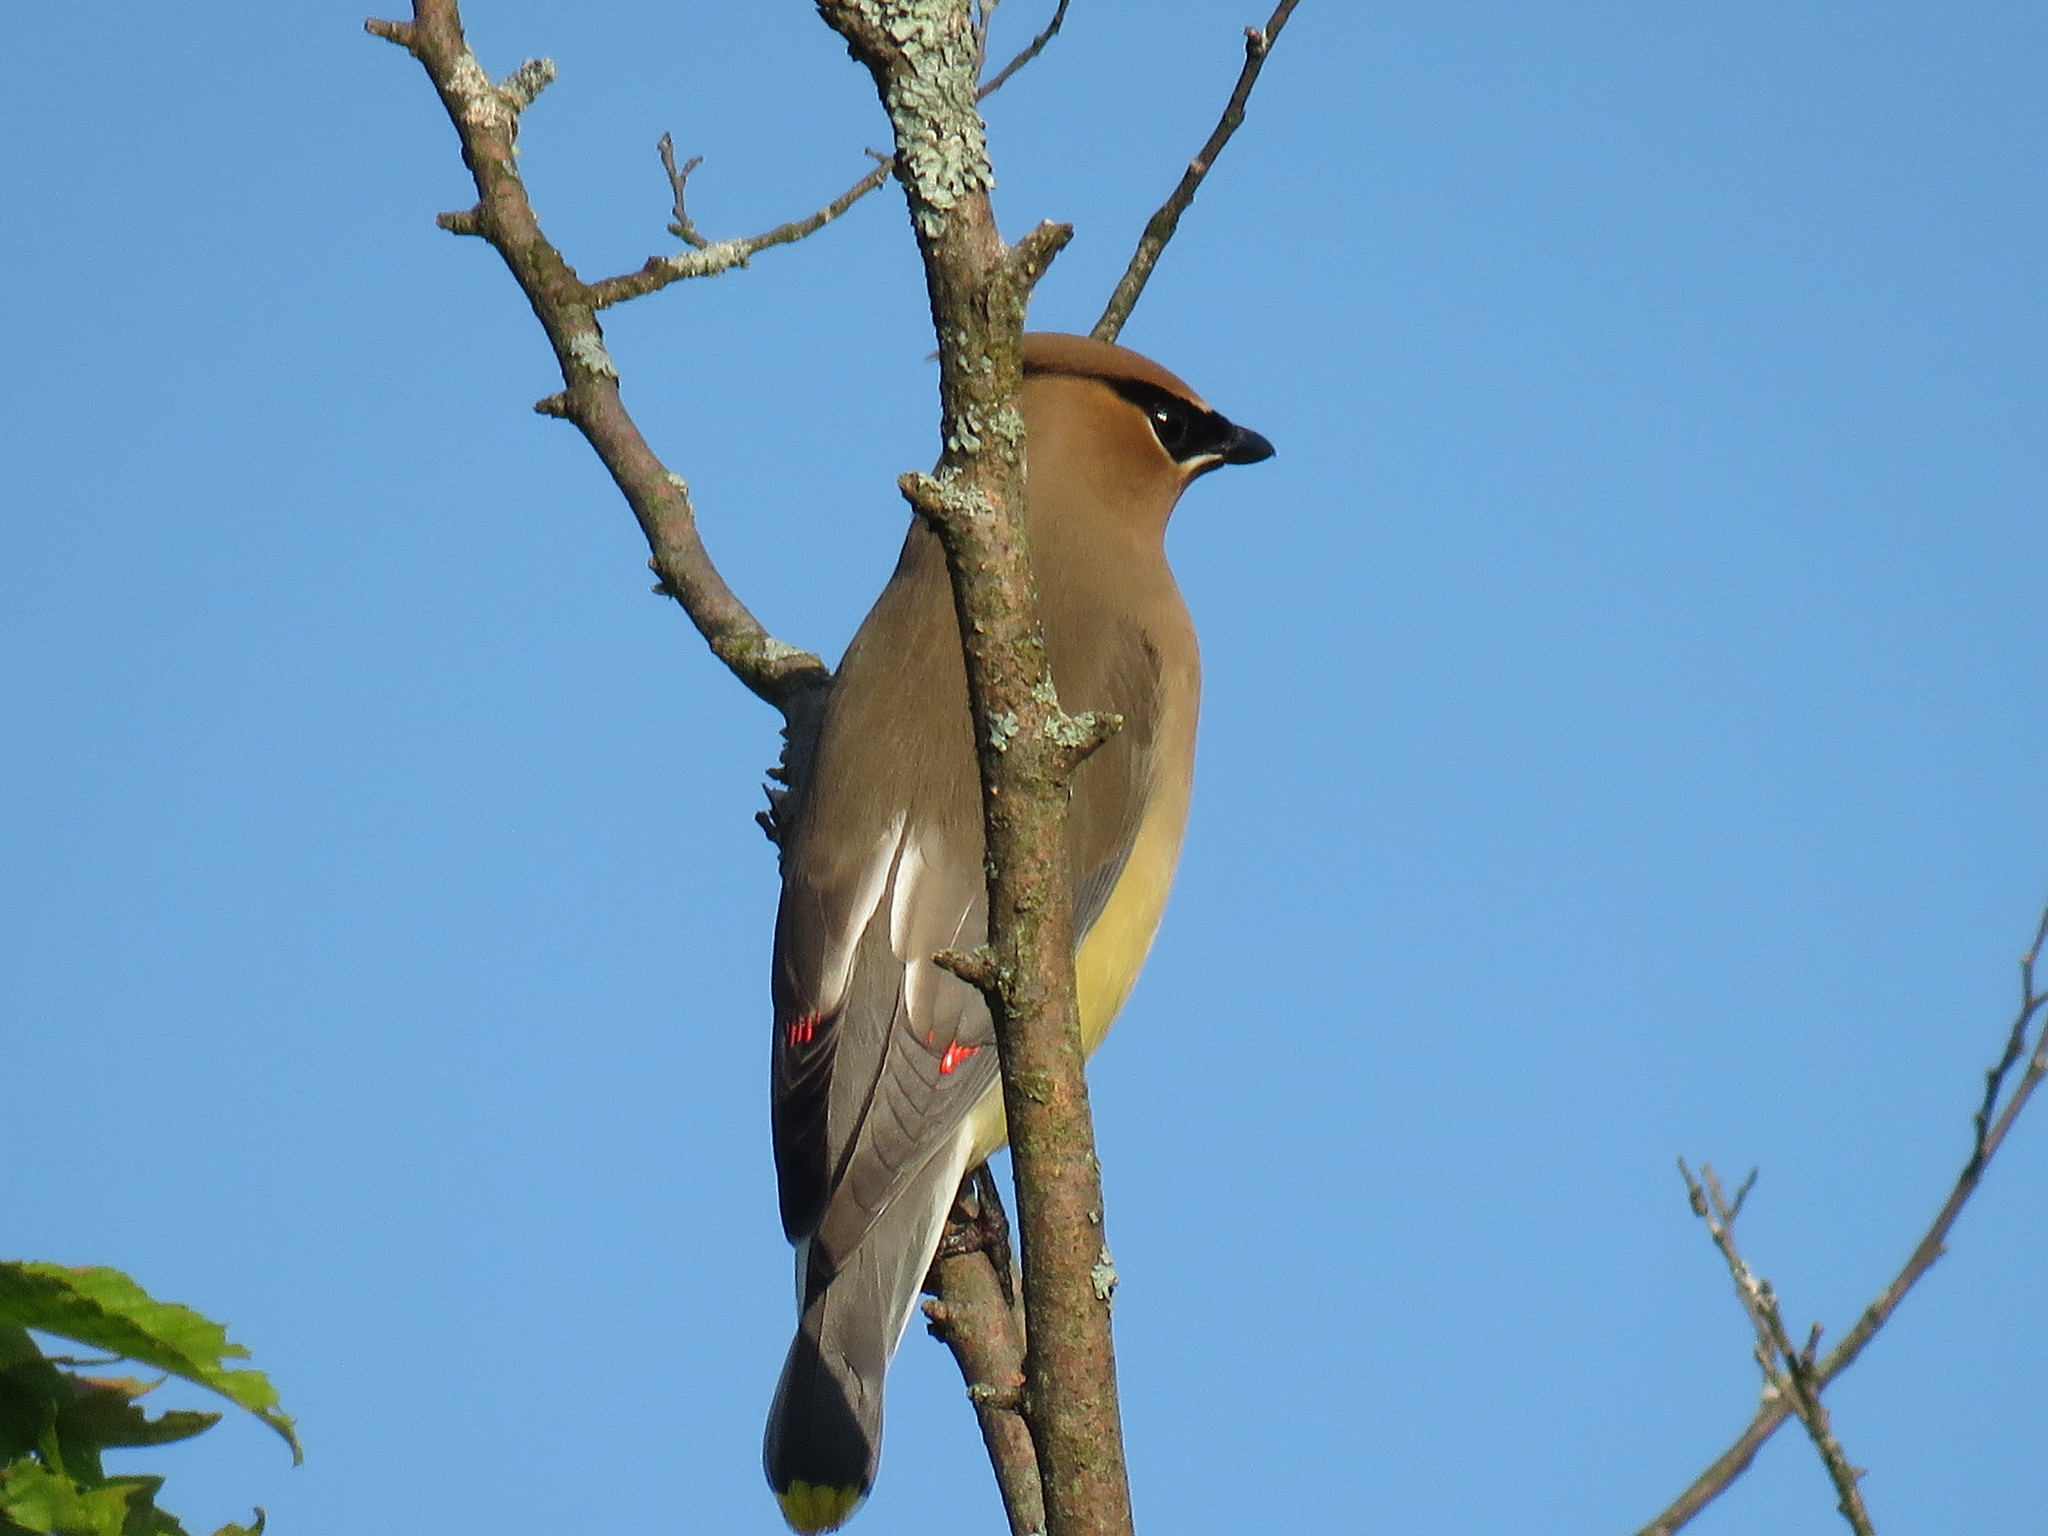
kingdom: Animalia
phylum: Chordata
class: Aves
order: Passeriformes
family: Bombycillidae
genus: Bombycilla
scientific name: Bombycilla cedrorum
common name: Cedar waxwing
